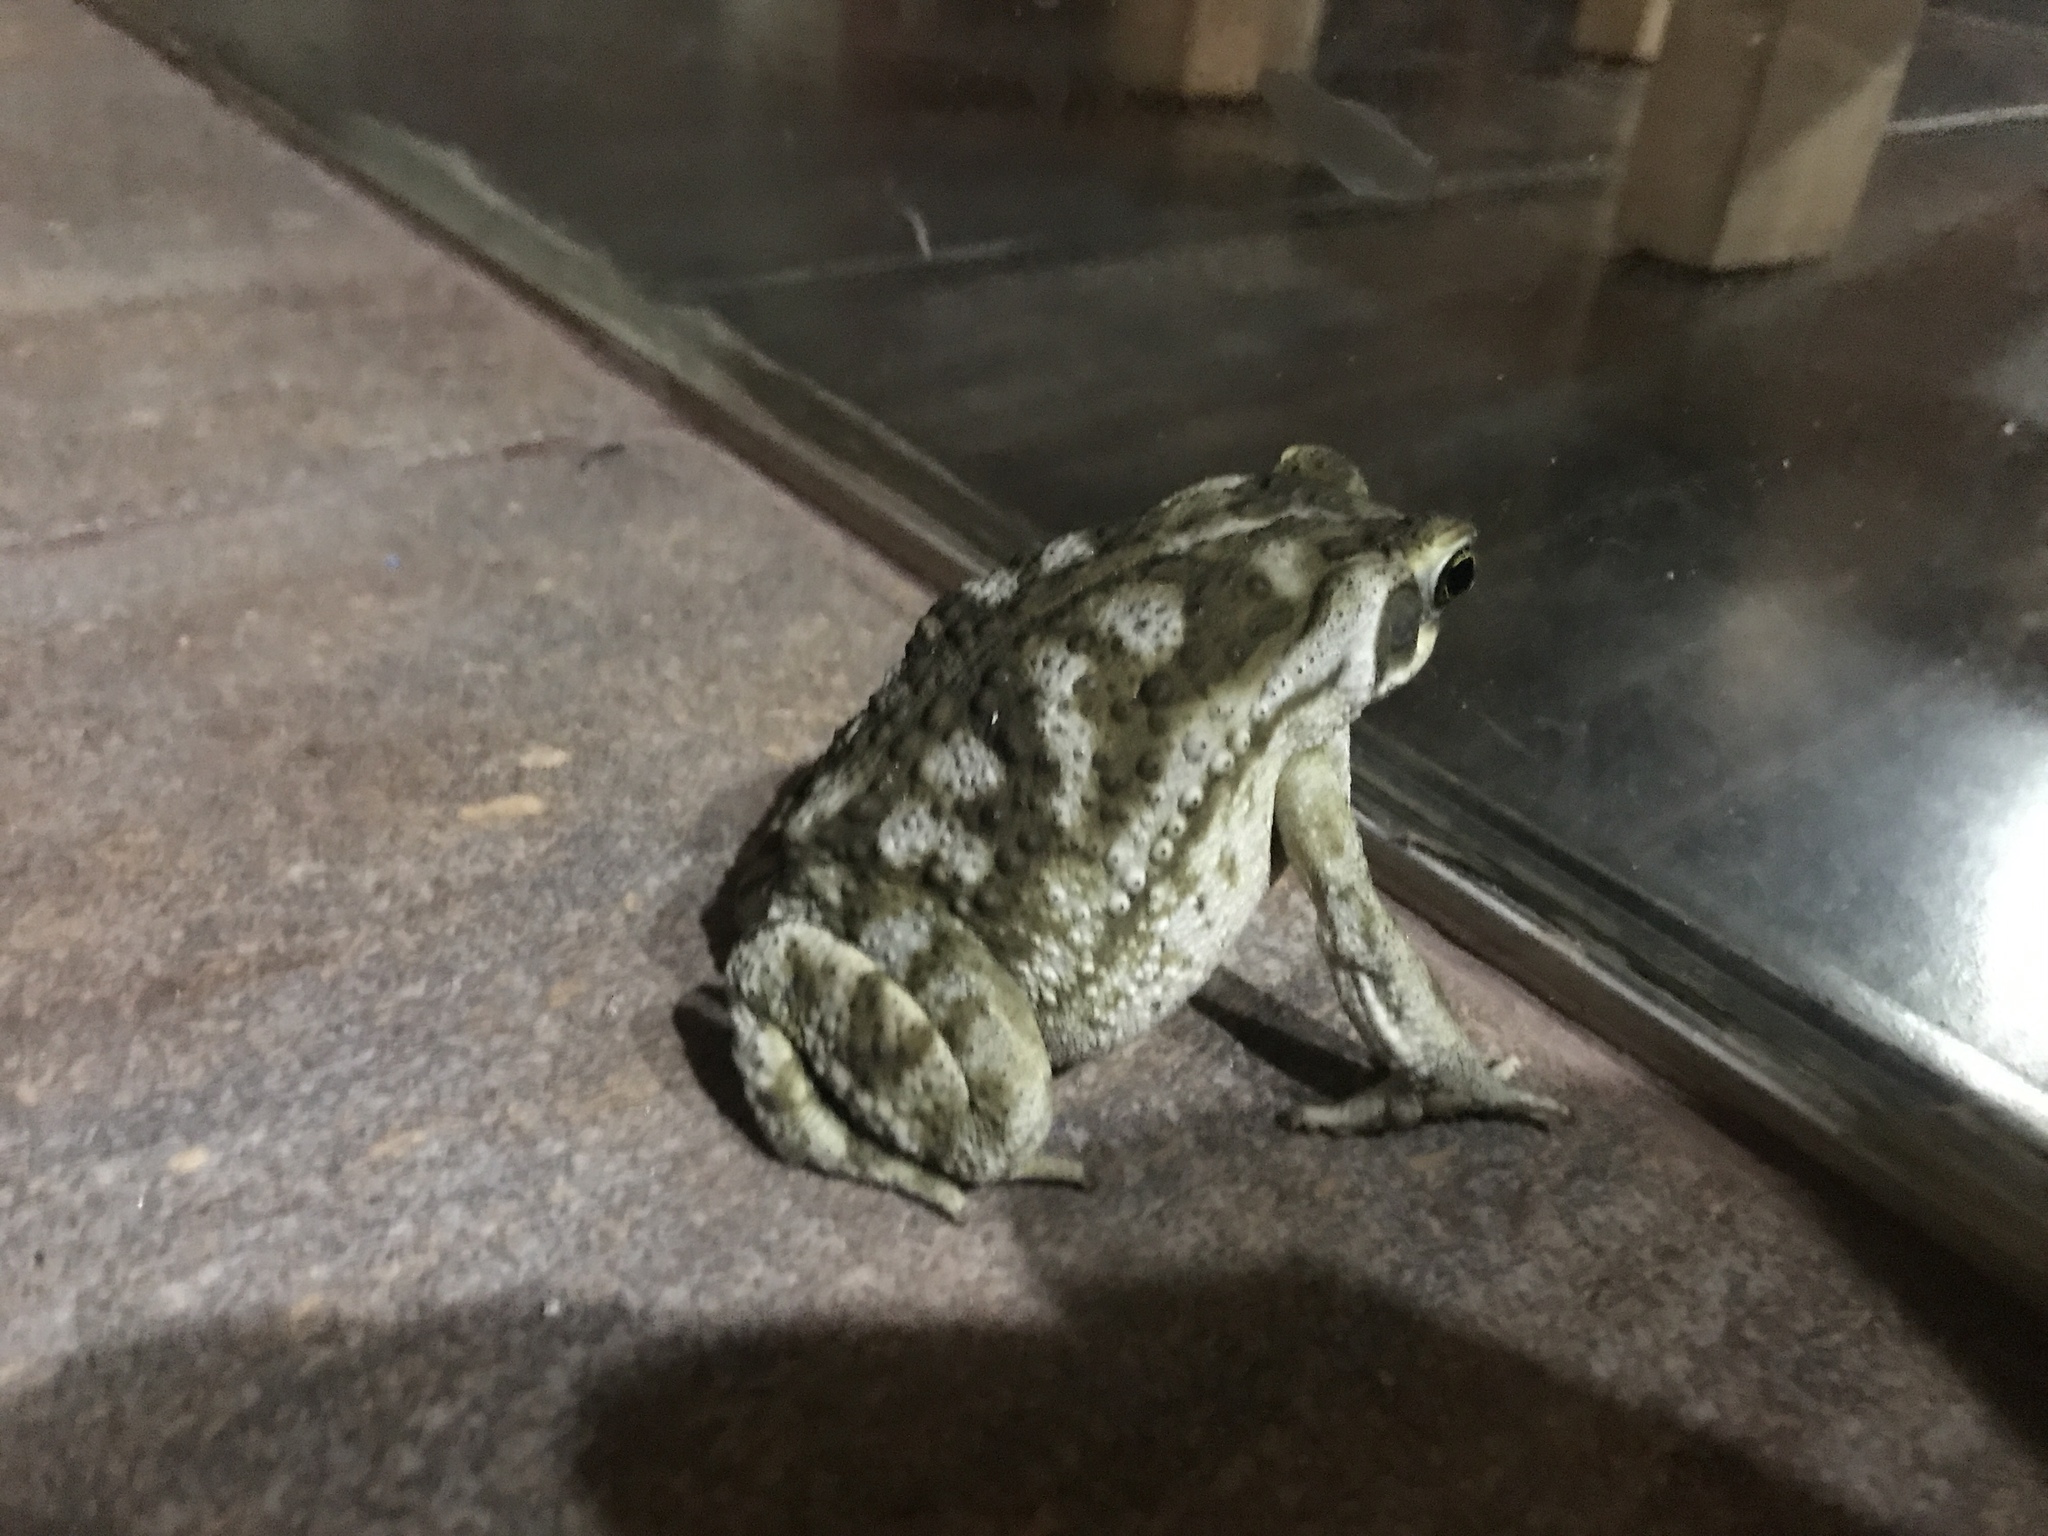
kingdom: Animalia
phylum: Chordata
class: Amphibia
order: Anura
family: Bufonidae
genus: Rhinella
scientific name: Rhinella arenarum
